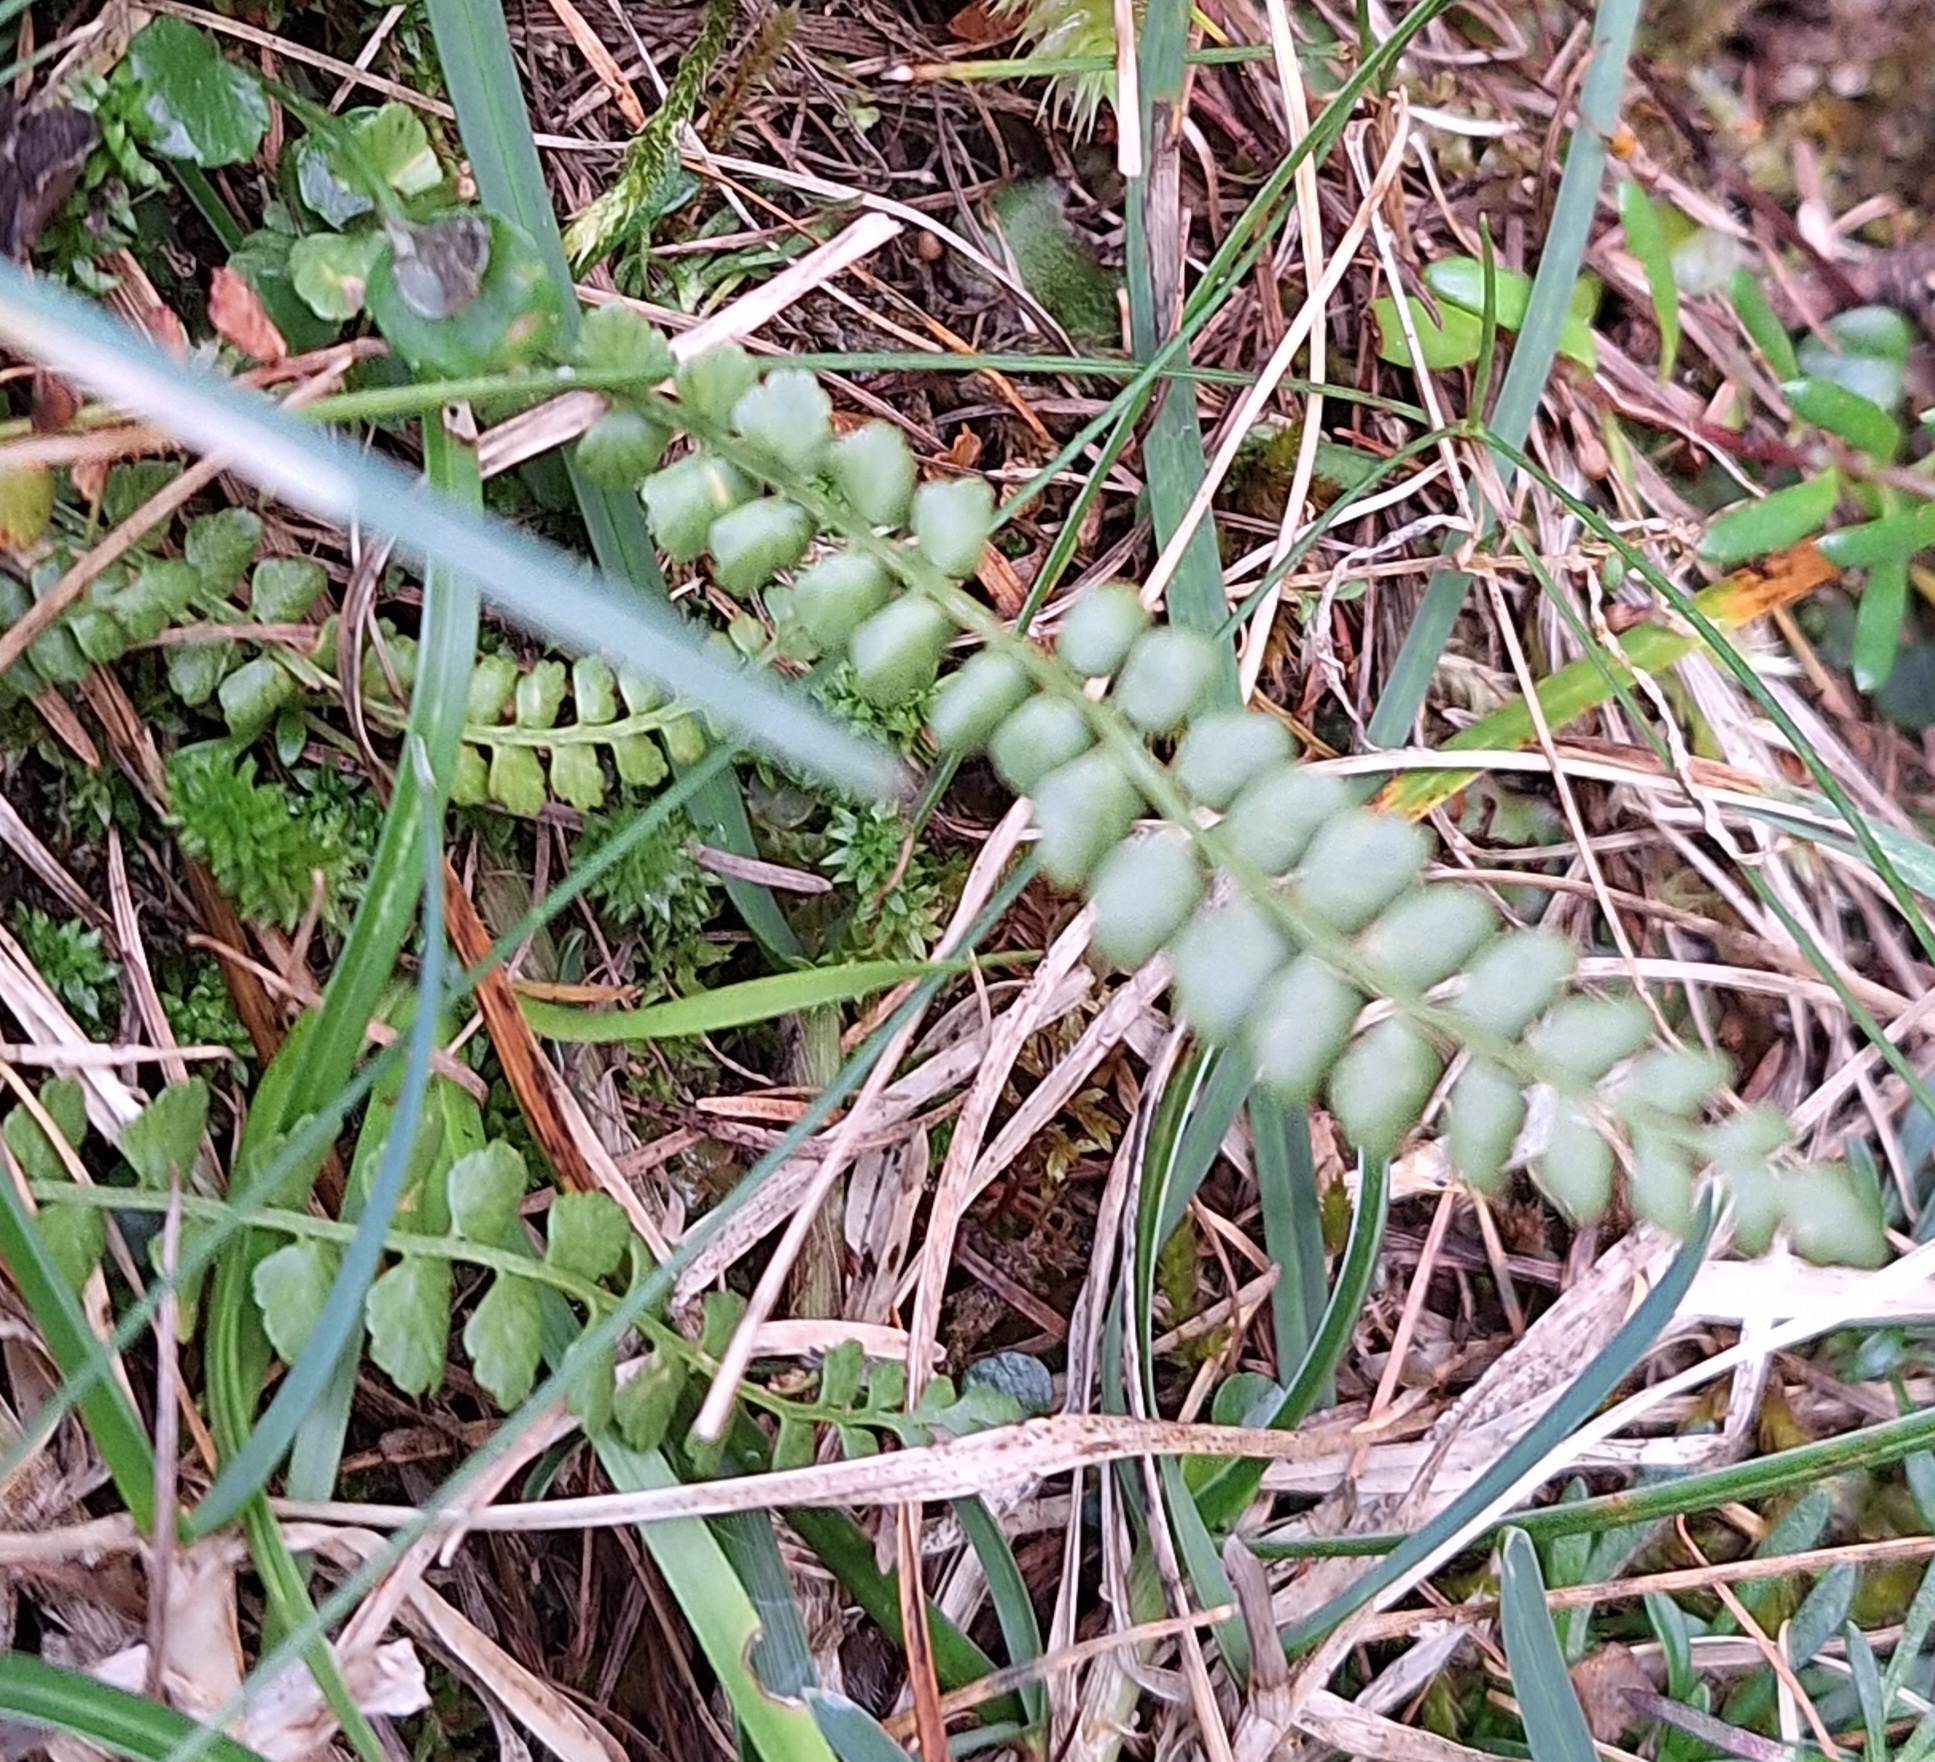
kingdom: Plantae
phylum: Tracheophyta
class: Polypodiopsida
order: Polypodiales
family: Aspleniaceae
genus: Asplenium
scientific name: Asplenium viride
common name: Green spleenwort
